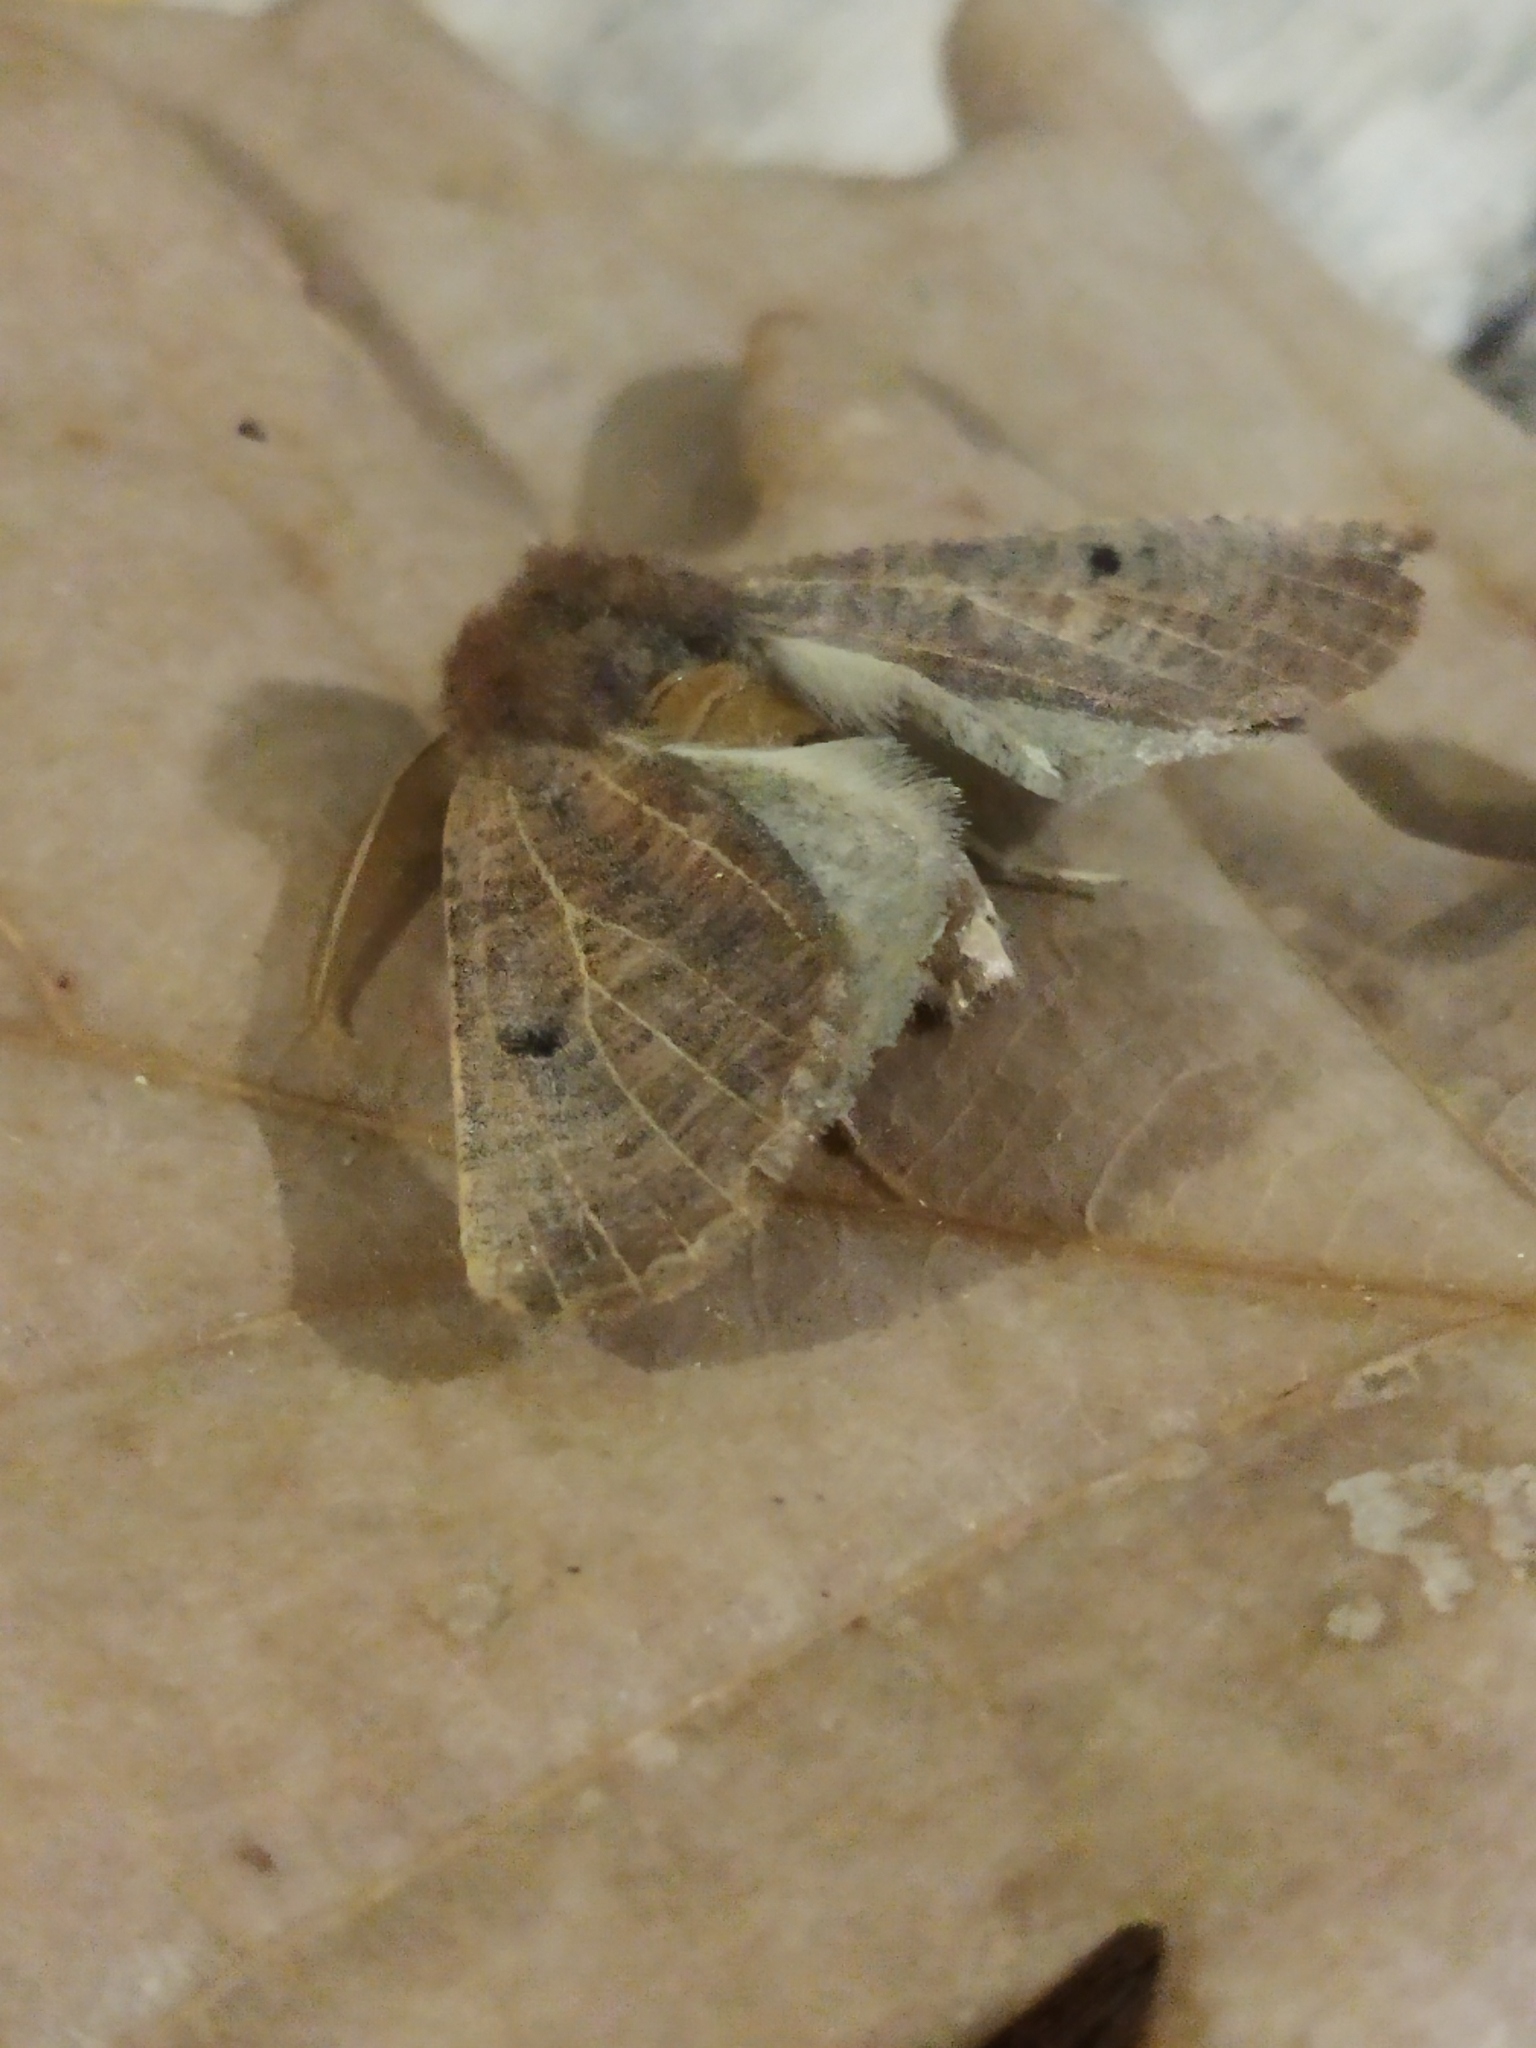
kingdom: Animalia
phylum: Arthropoda
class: Insecta
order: Lepidoptera
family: Geometridae
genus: Dasycorsa
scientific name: Dasycorsa modesta
